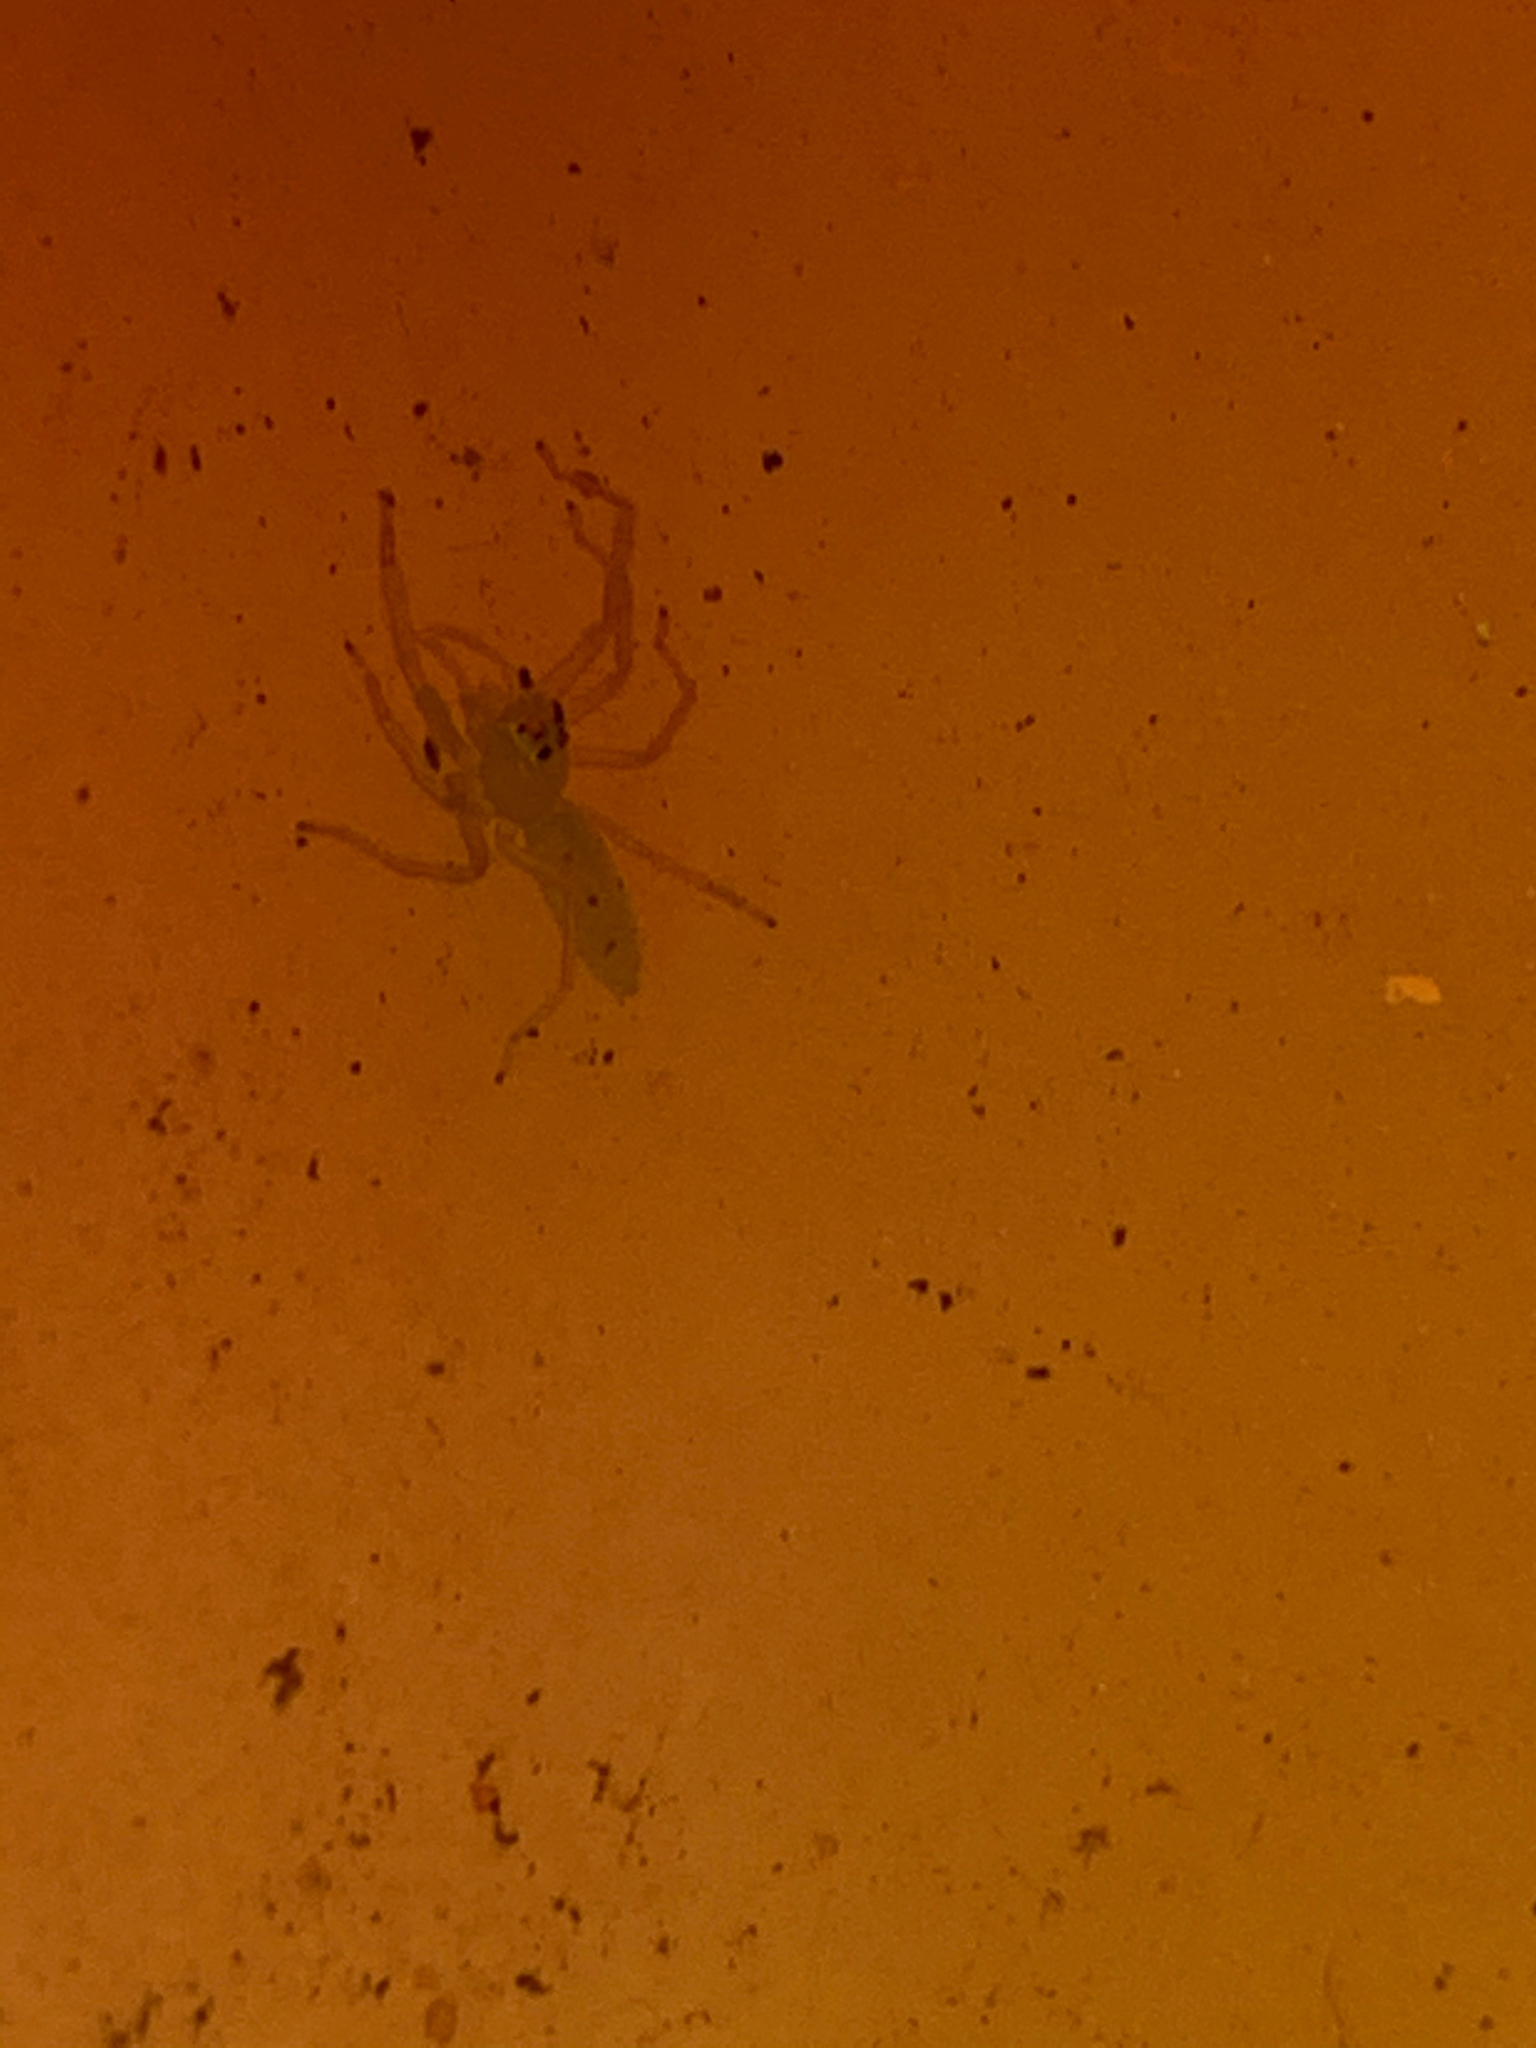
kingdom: Animalia
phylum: Arthropoda
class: Arachnida
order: Araneae
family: Salticidae
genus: Lyssomanes
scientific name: Lyssomanes viridis
